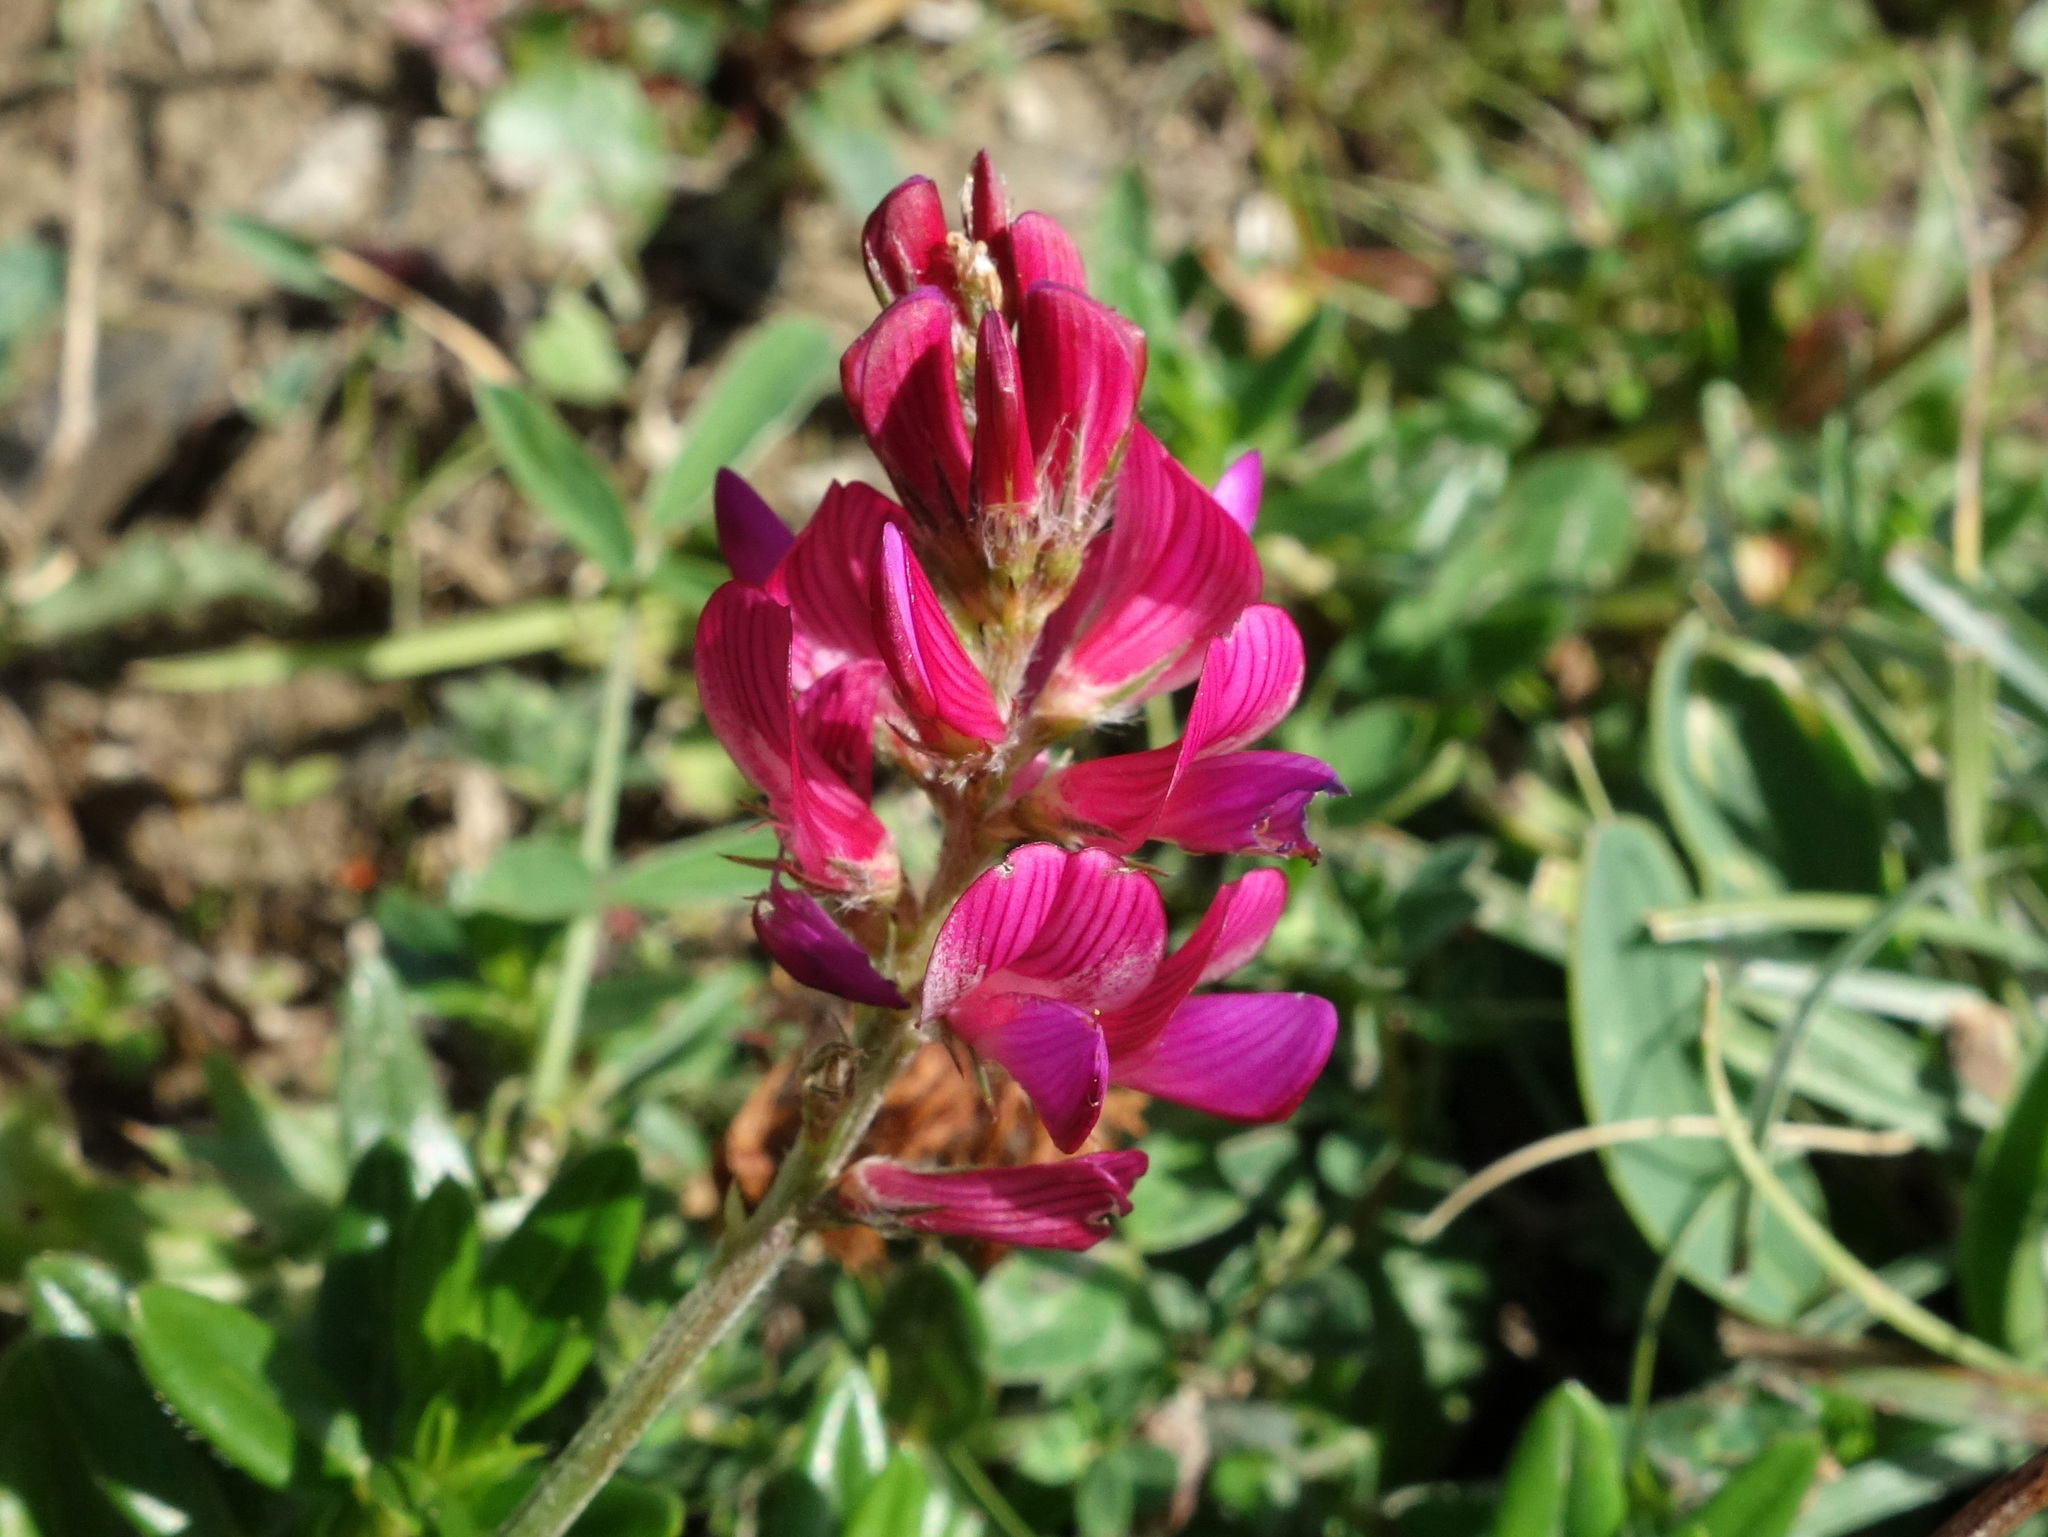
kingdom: Plantae
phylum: Tracheophyta
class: Magnoliopsida
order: Fabales
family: Fabaceae
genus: Onobrychis
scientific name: Onobrychis montana
